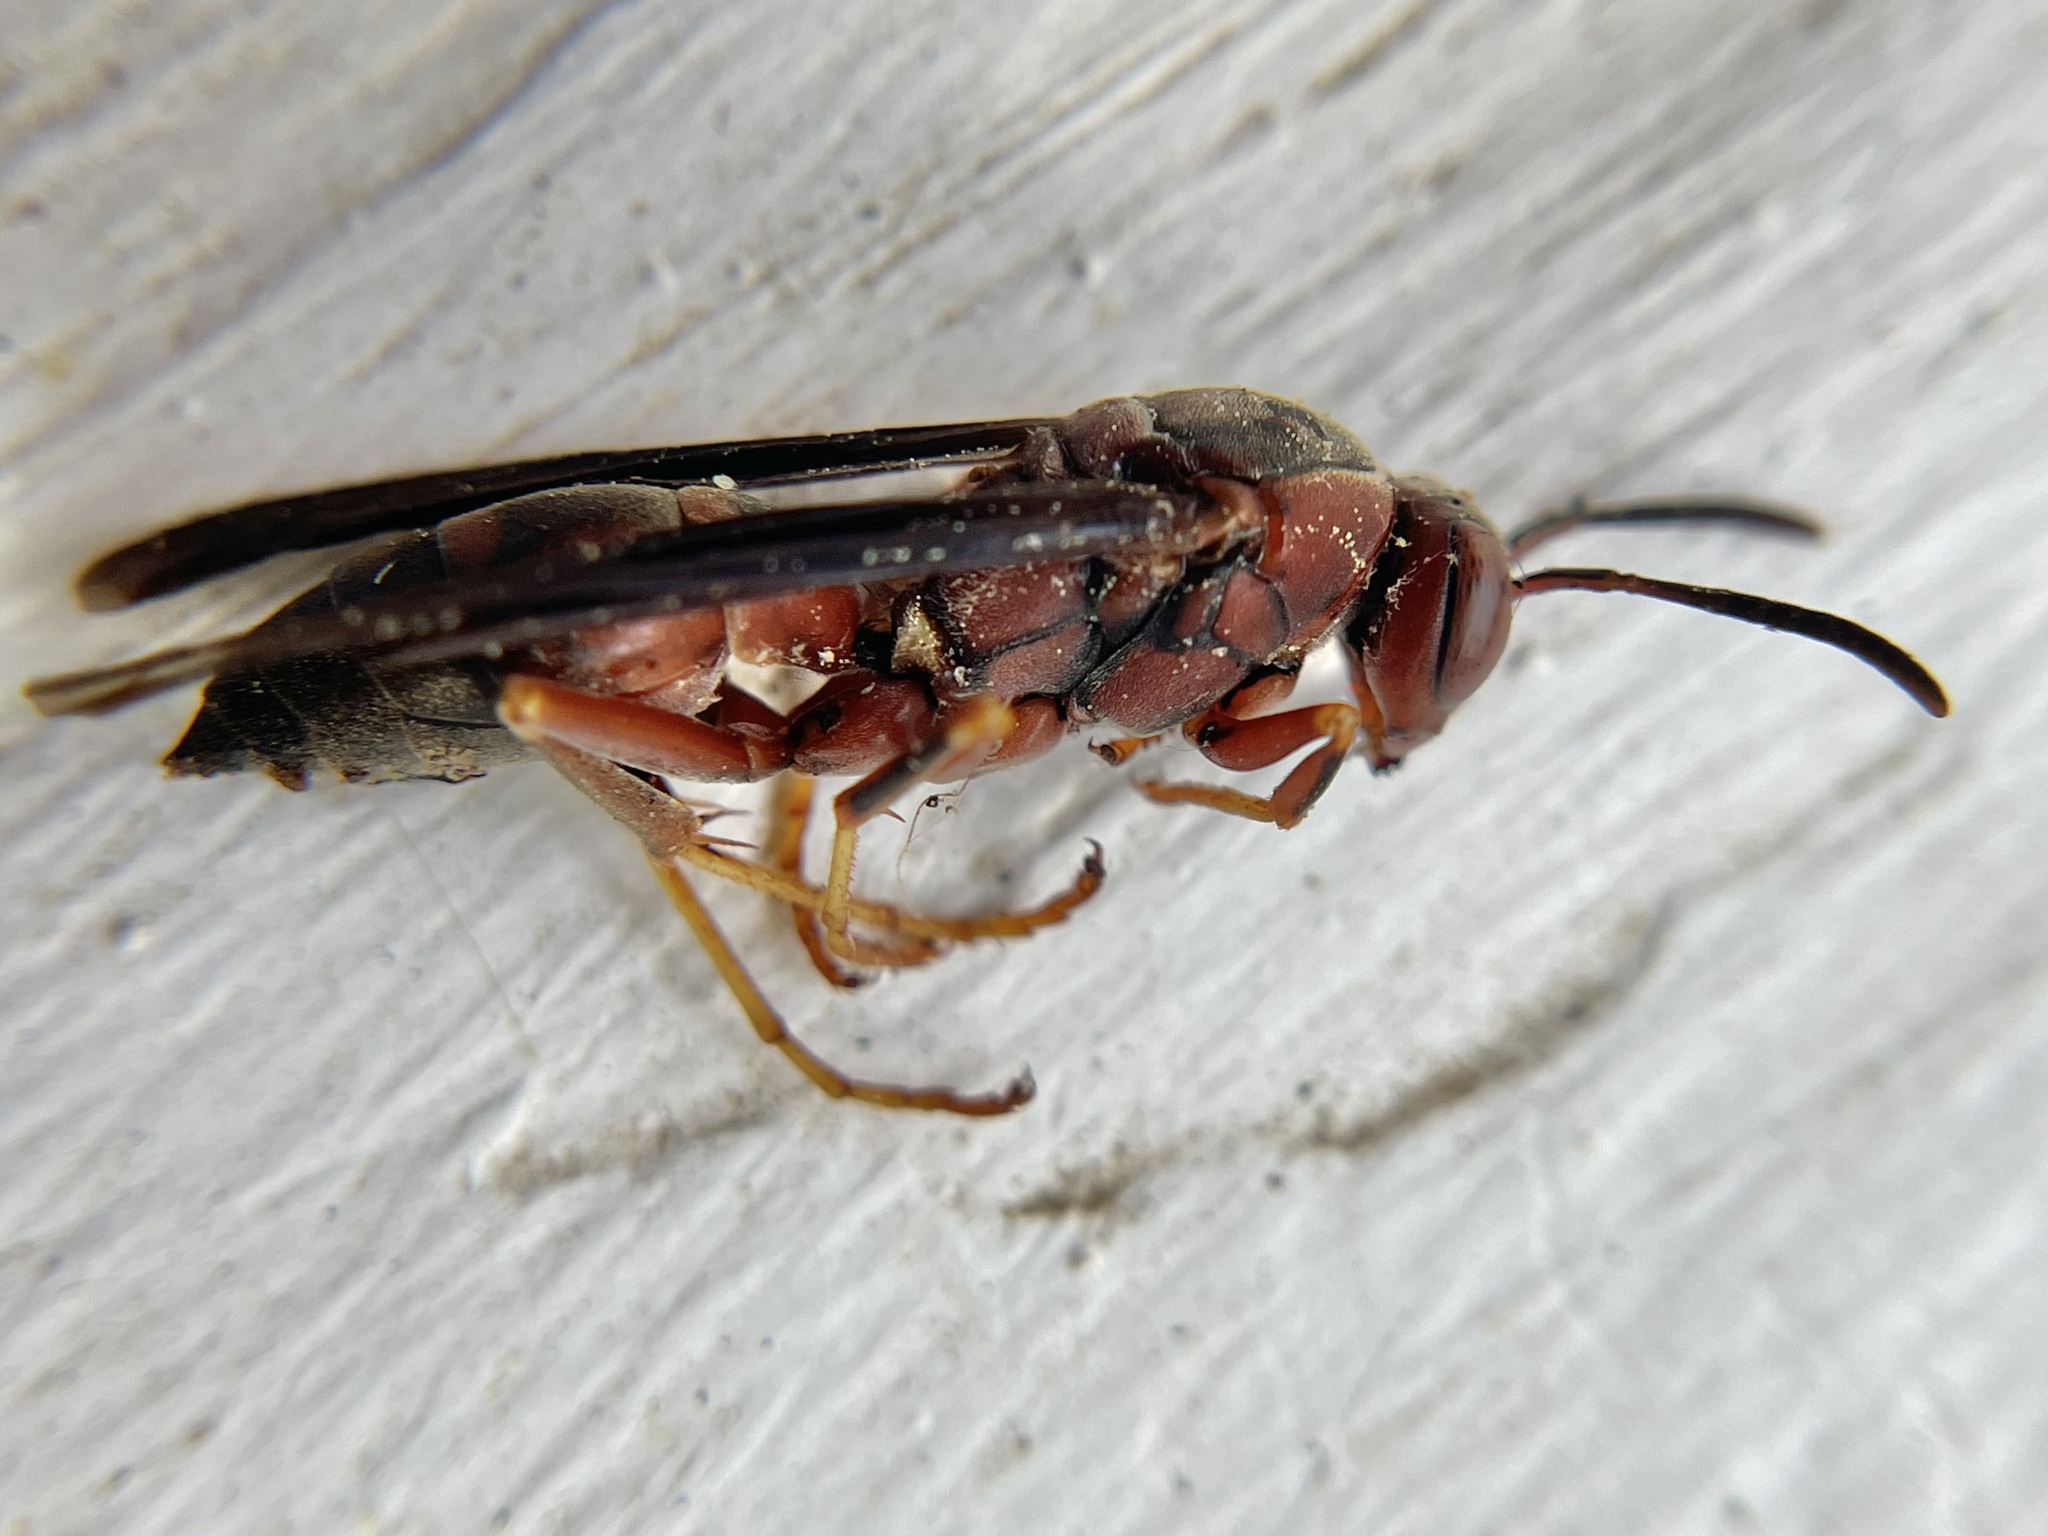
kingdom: Animalia
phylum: Arthropoda
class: Insecta
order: Hymenoptera
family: Eumenidae
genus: Polistes
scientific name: Polistes metricus
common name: Metric paper wasp
